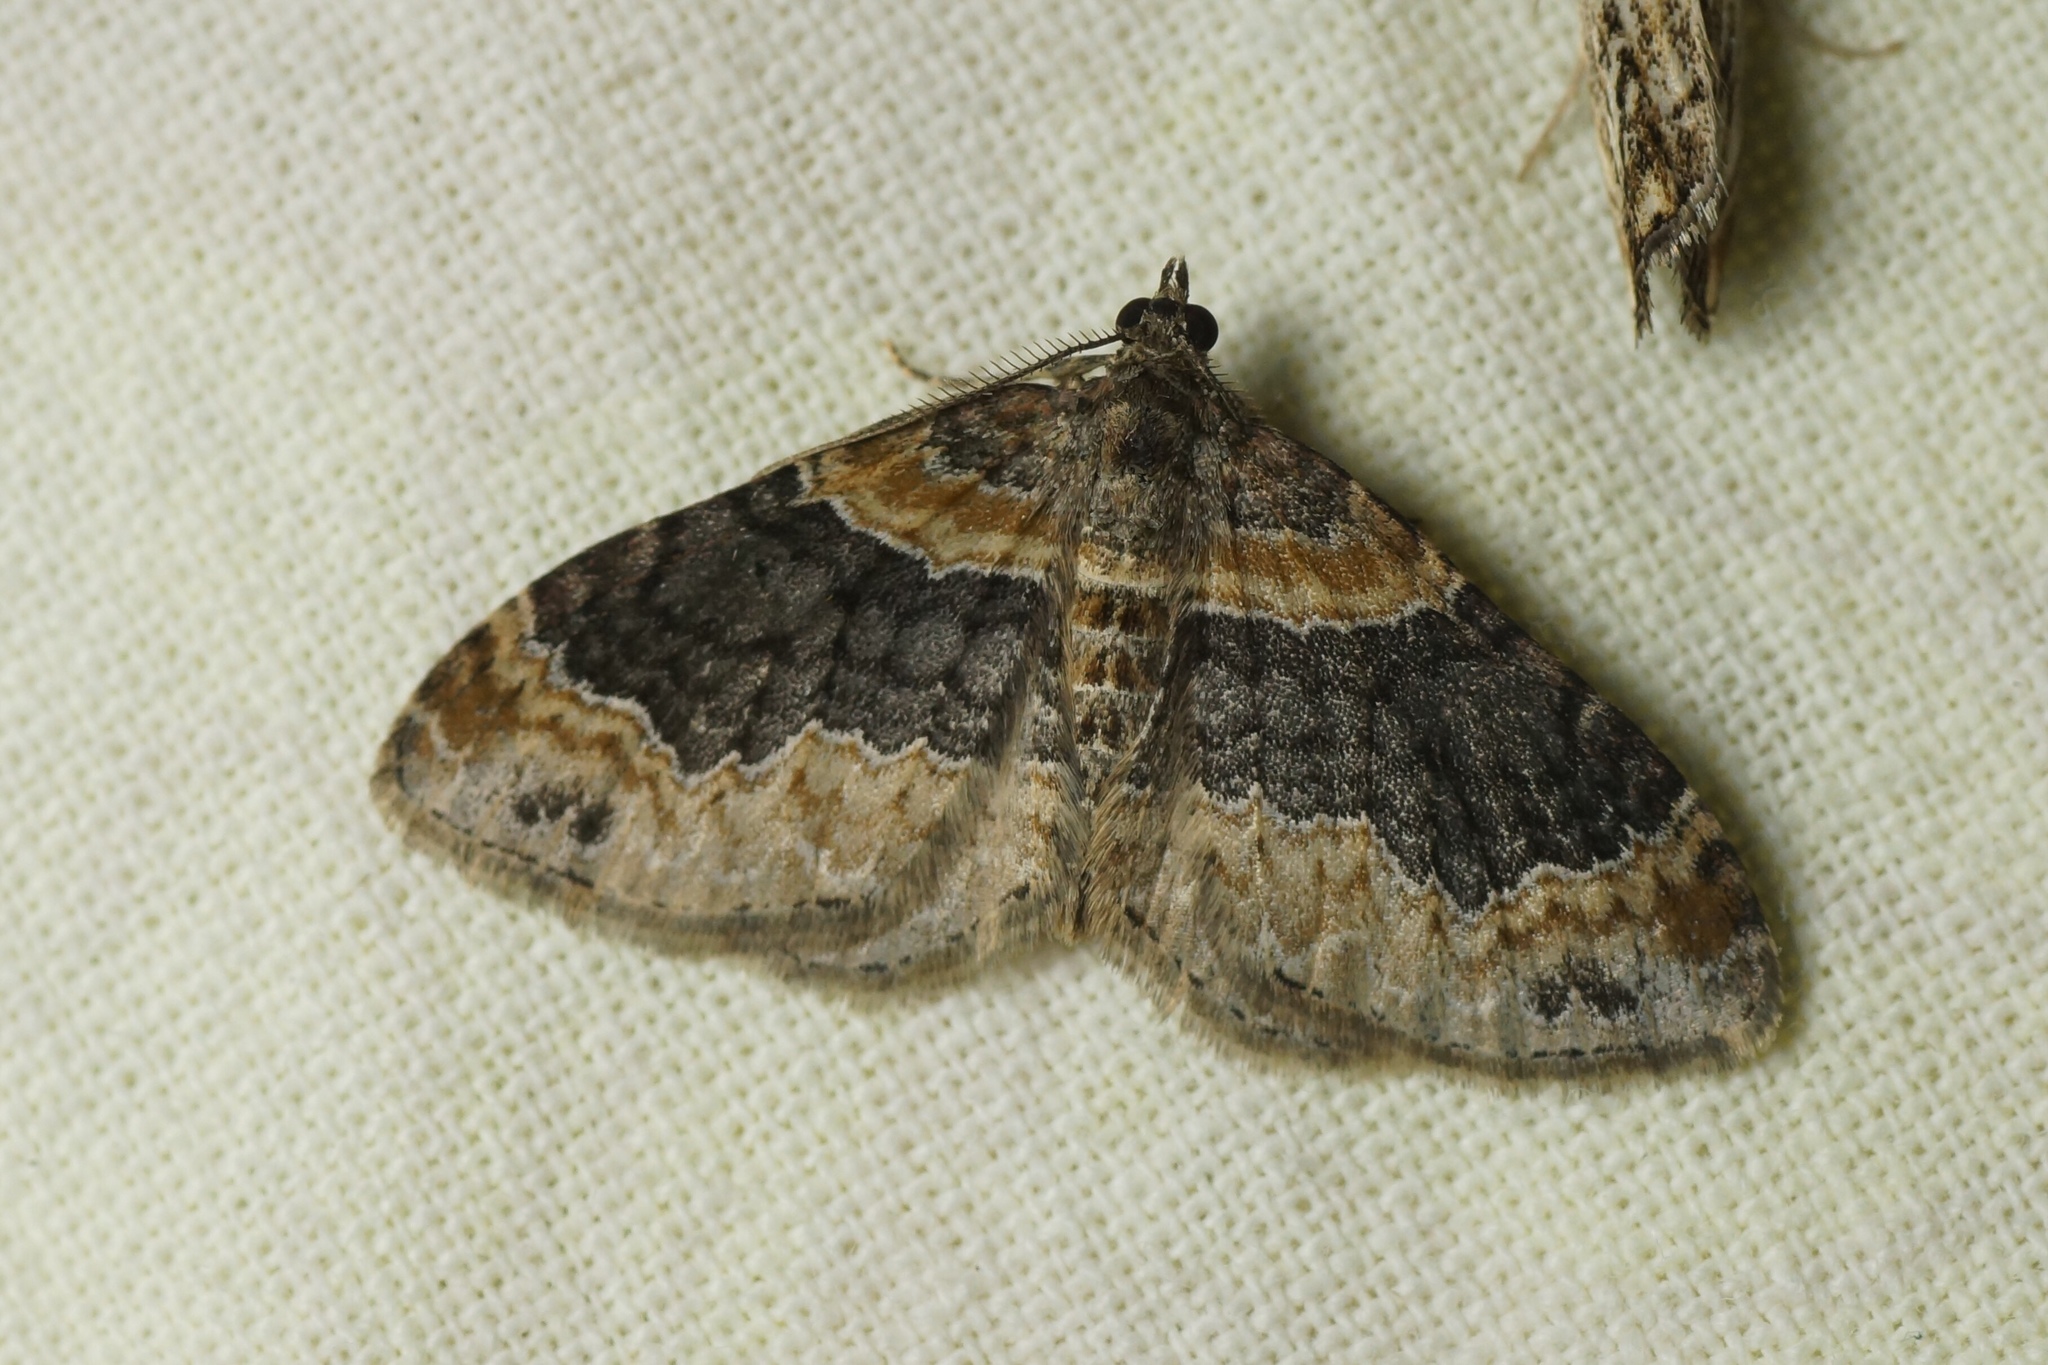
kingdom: Animalia
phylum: Arthropoda
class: Insecta
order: Lepidoptera
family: Geometridae
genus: Xanthorhoe
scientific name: Xanthorhoe ferrugata
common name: Dark-barred twin-spot carpet
